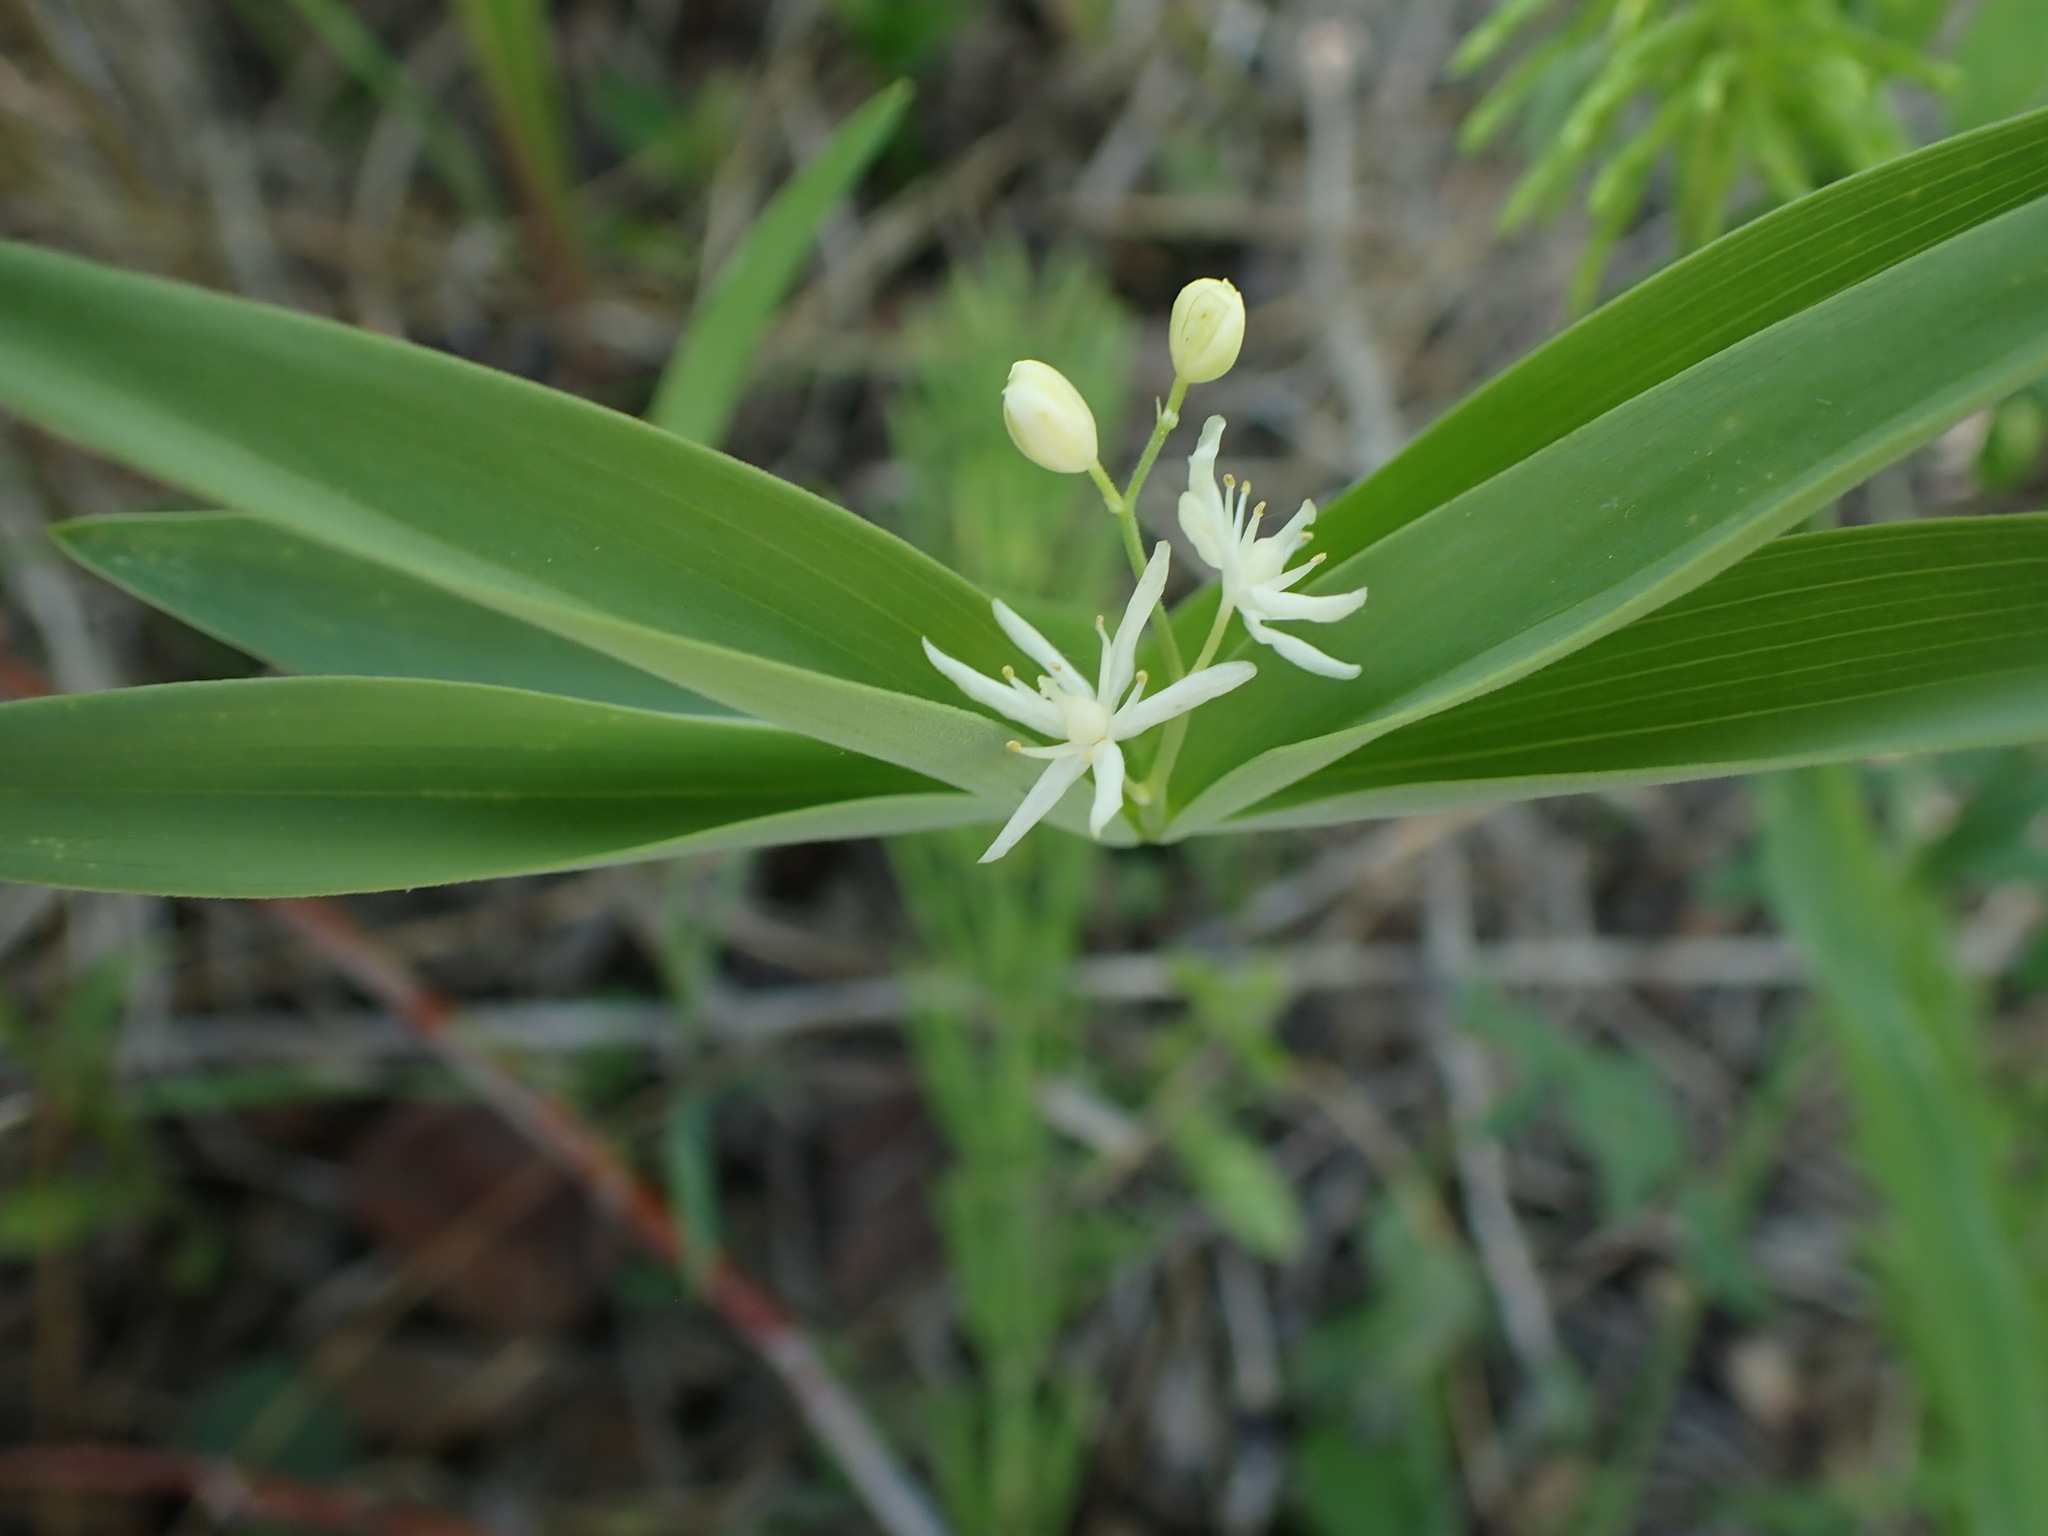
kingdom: Plantae
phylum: Tracheophyta
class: Liliopsida
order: Asparagales
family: Asparagaceae
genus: Maianthemum
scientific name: Maianthemum stellatum
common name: Little false solomon's seal
